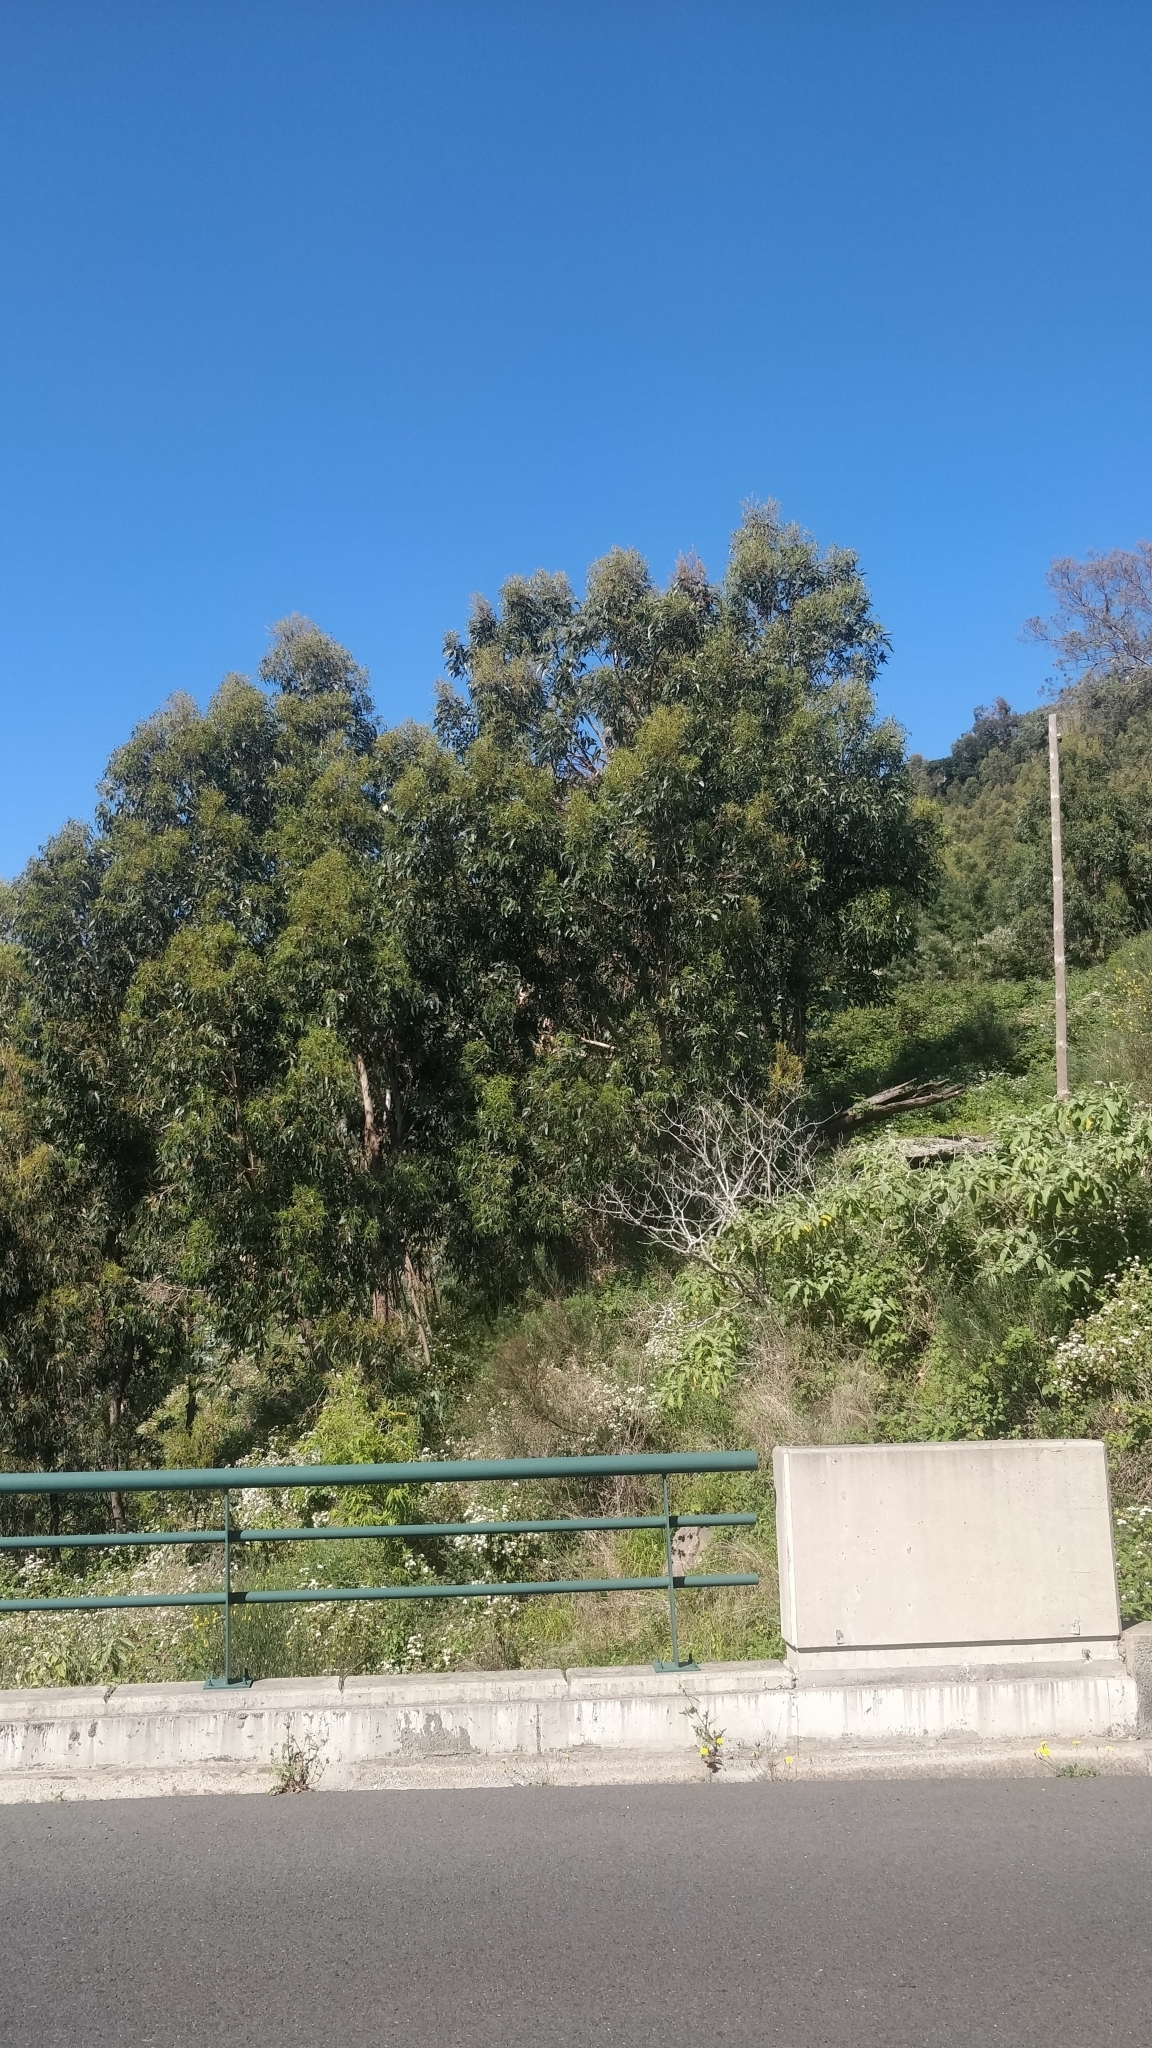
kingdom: Plantae
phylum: Tracheophyta
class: Magnoliopsida
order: Myrtales
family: Myrtaceae
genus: Eucalyptus
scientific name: Eucalyptus globulus
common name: Southern blue-gum
